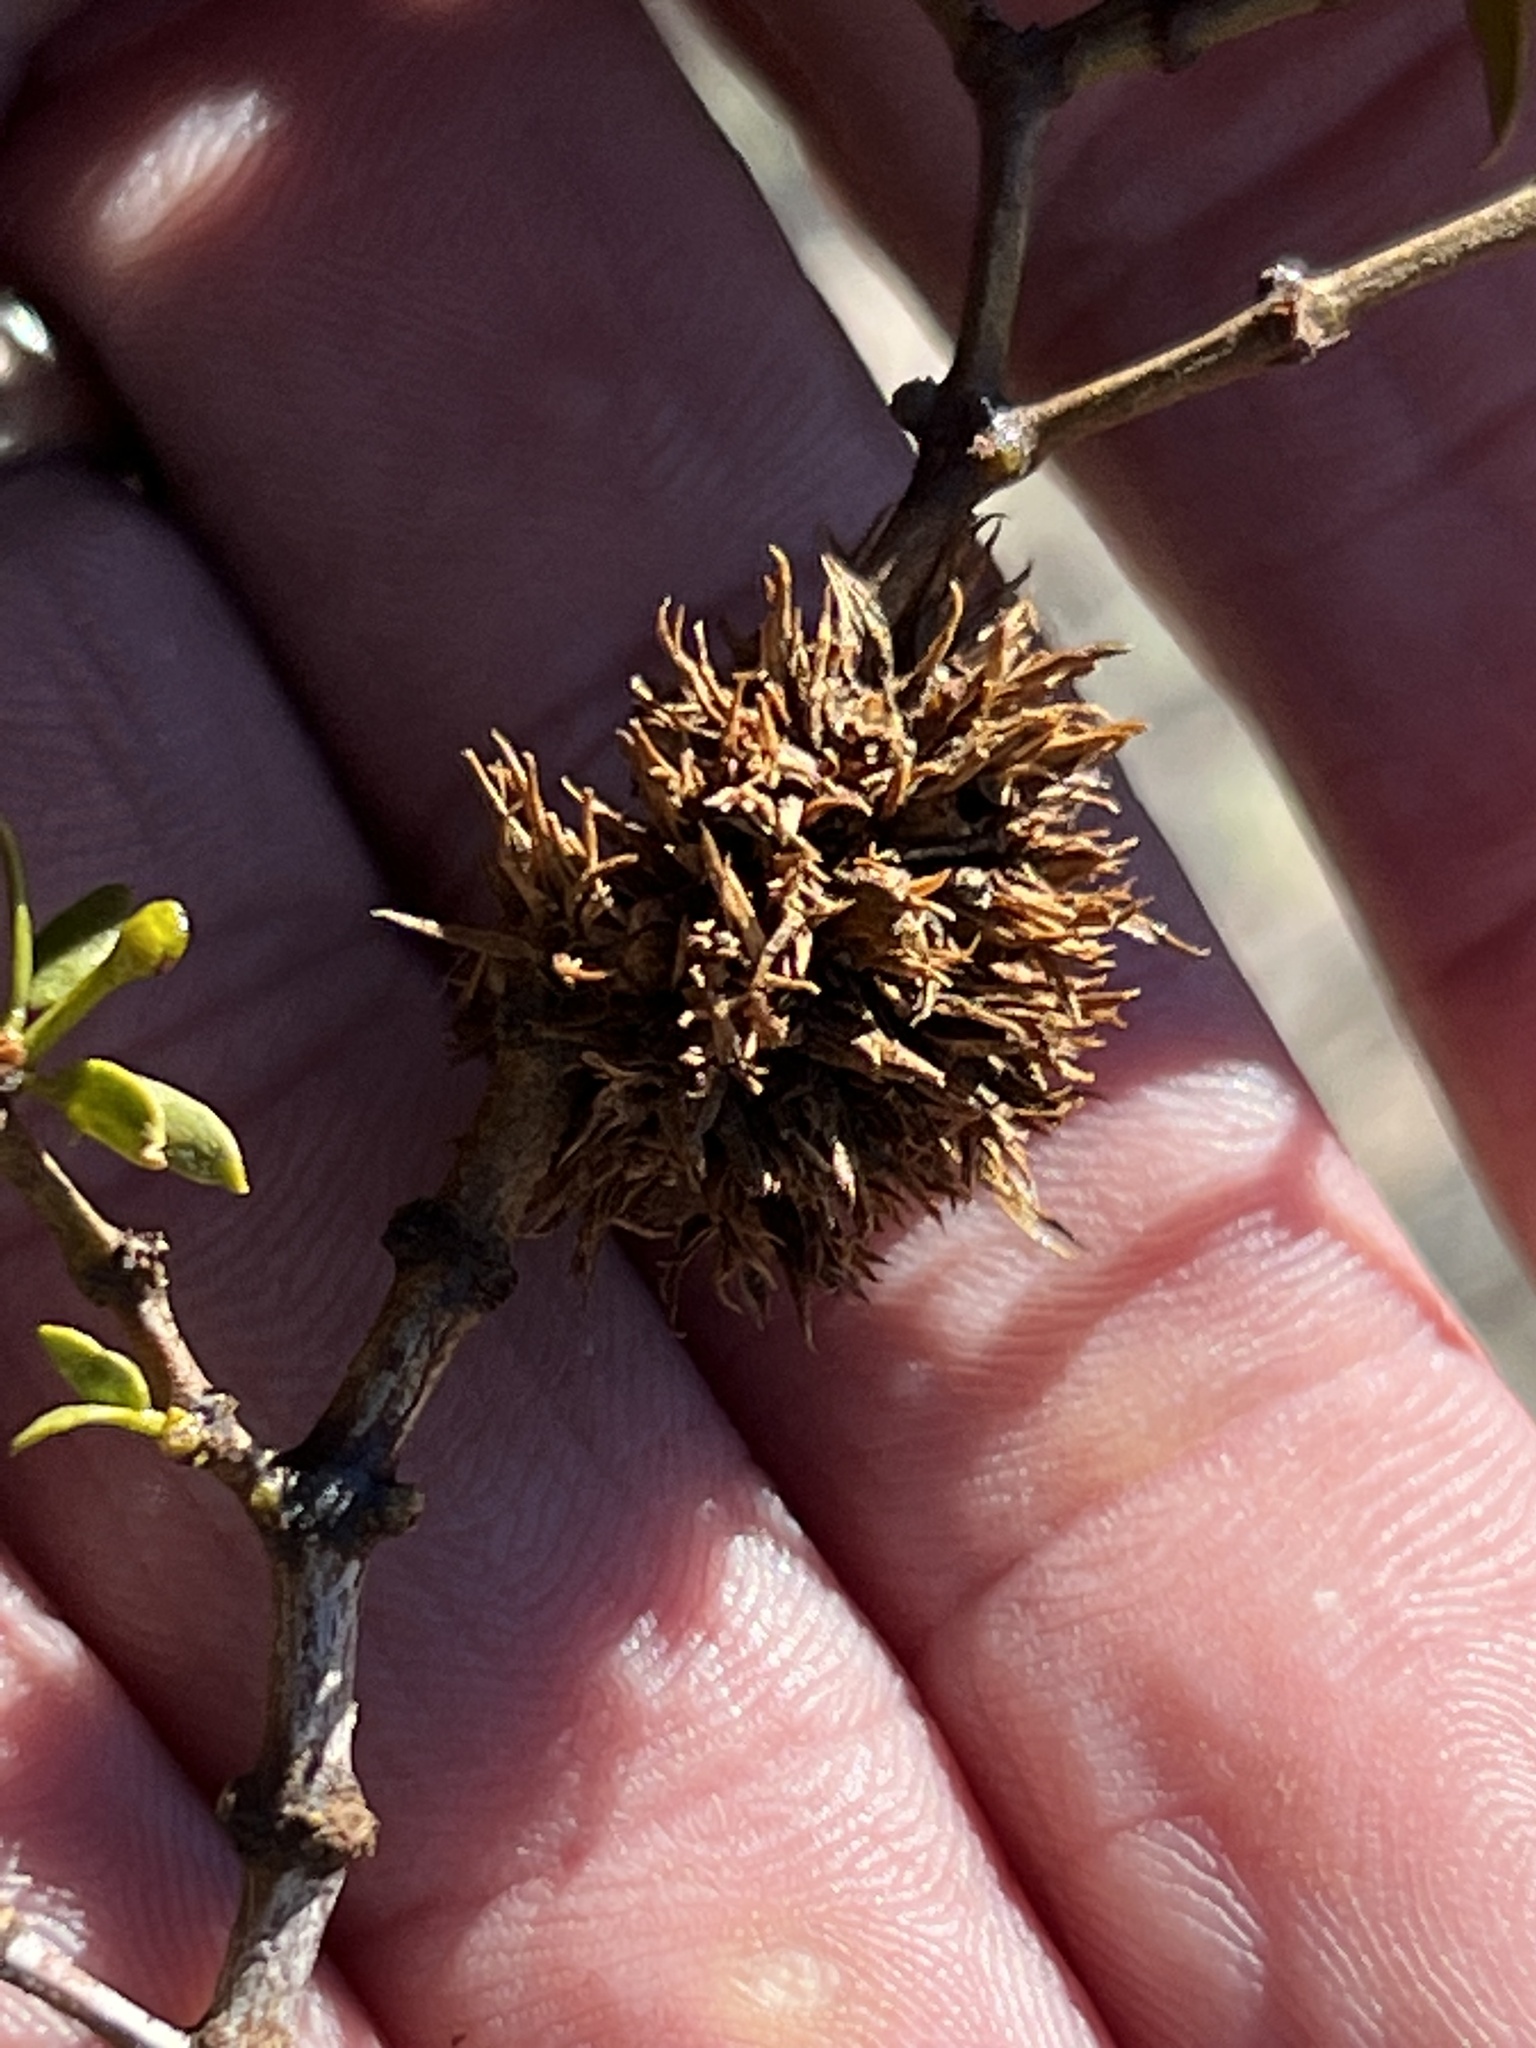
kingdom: Animalia
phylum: Arthropoda
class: Insecta
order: Diptera
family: Cecidomyiidae
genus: Asphondylia
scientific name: Asphondylia auripila
